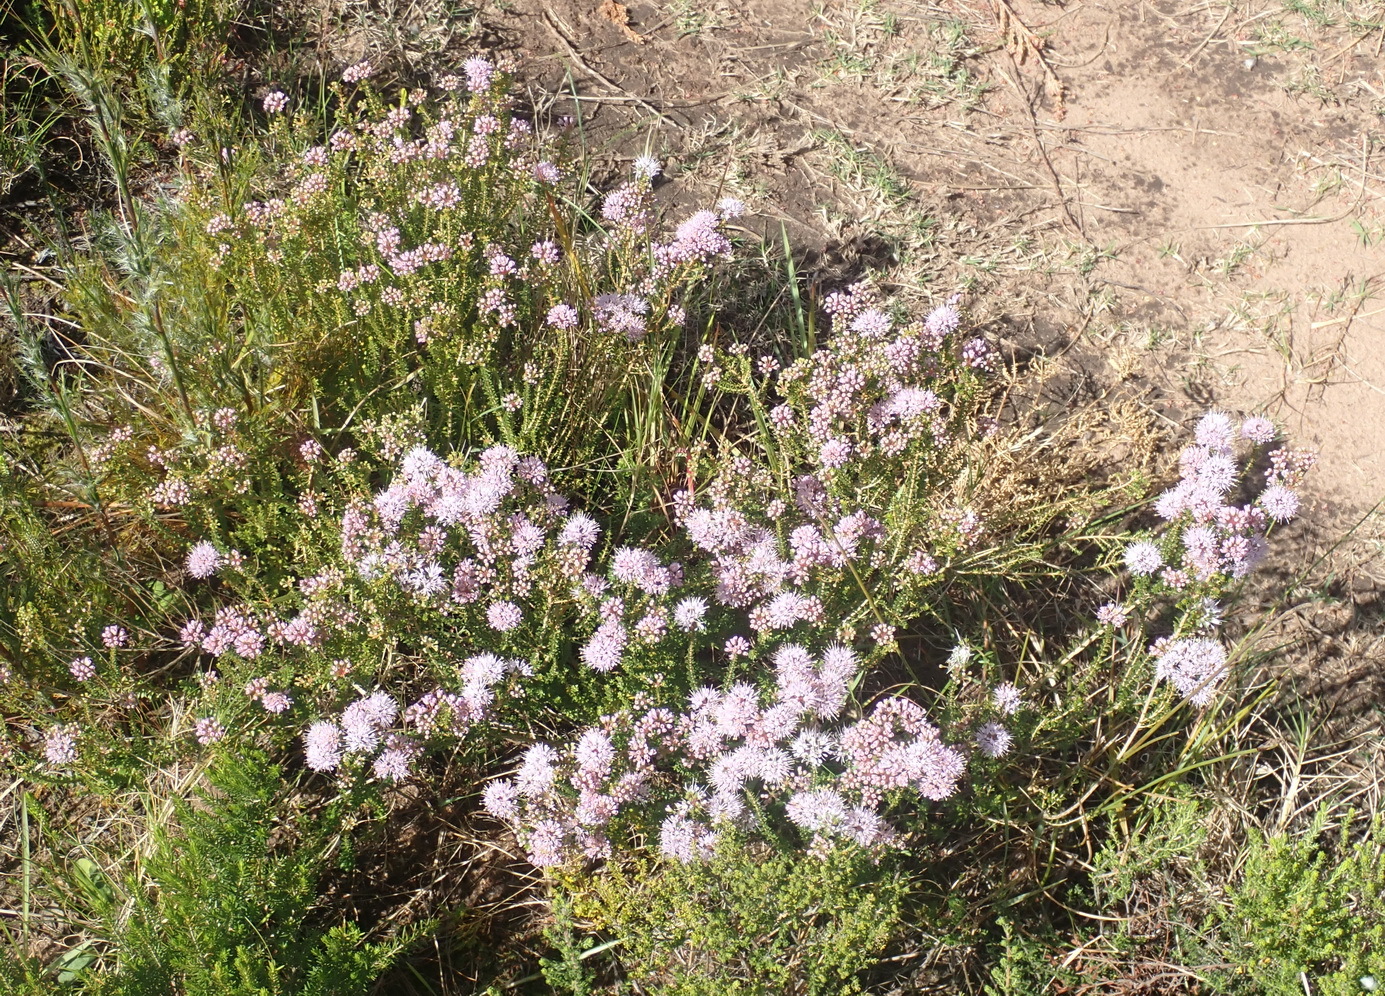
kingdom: Plantae
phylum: Tracheophyta
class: Magnoliopsida
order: Sapindales
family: Rutaceae
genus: Agathosma
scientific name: Agathosma capensis
